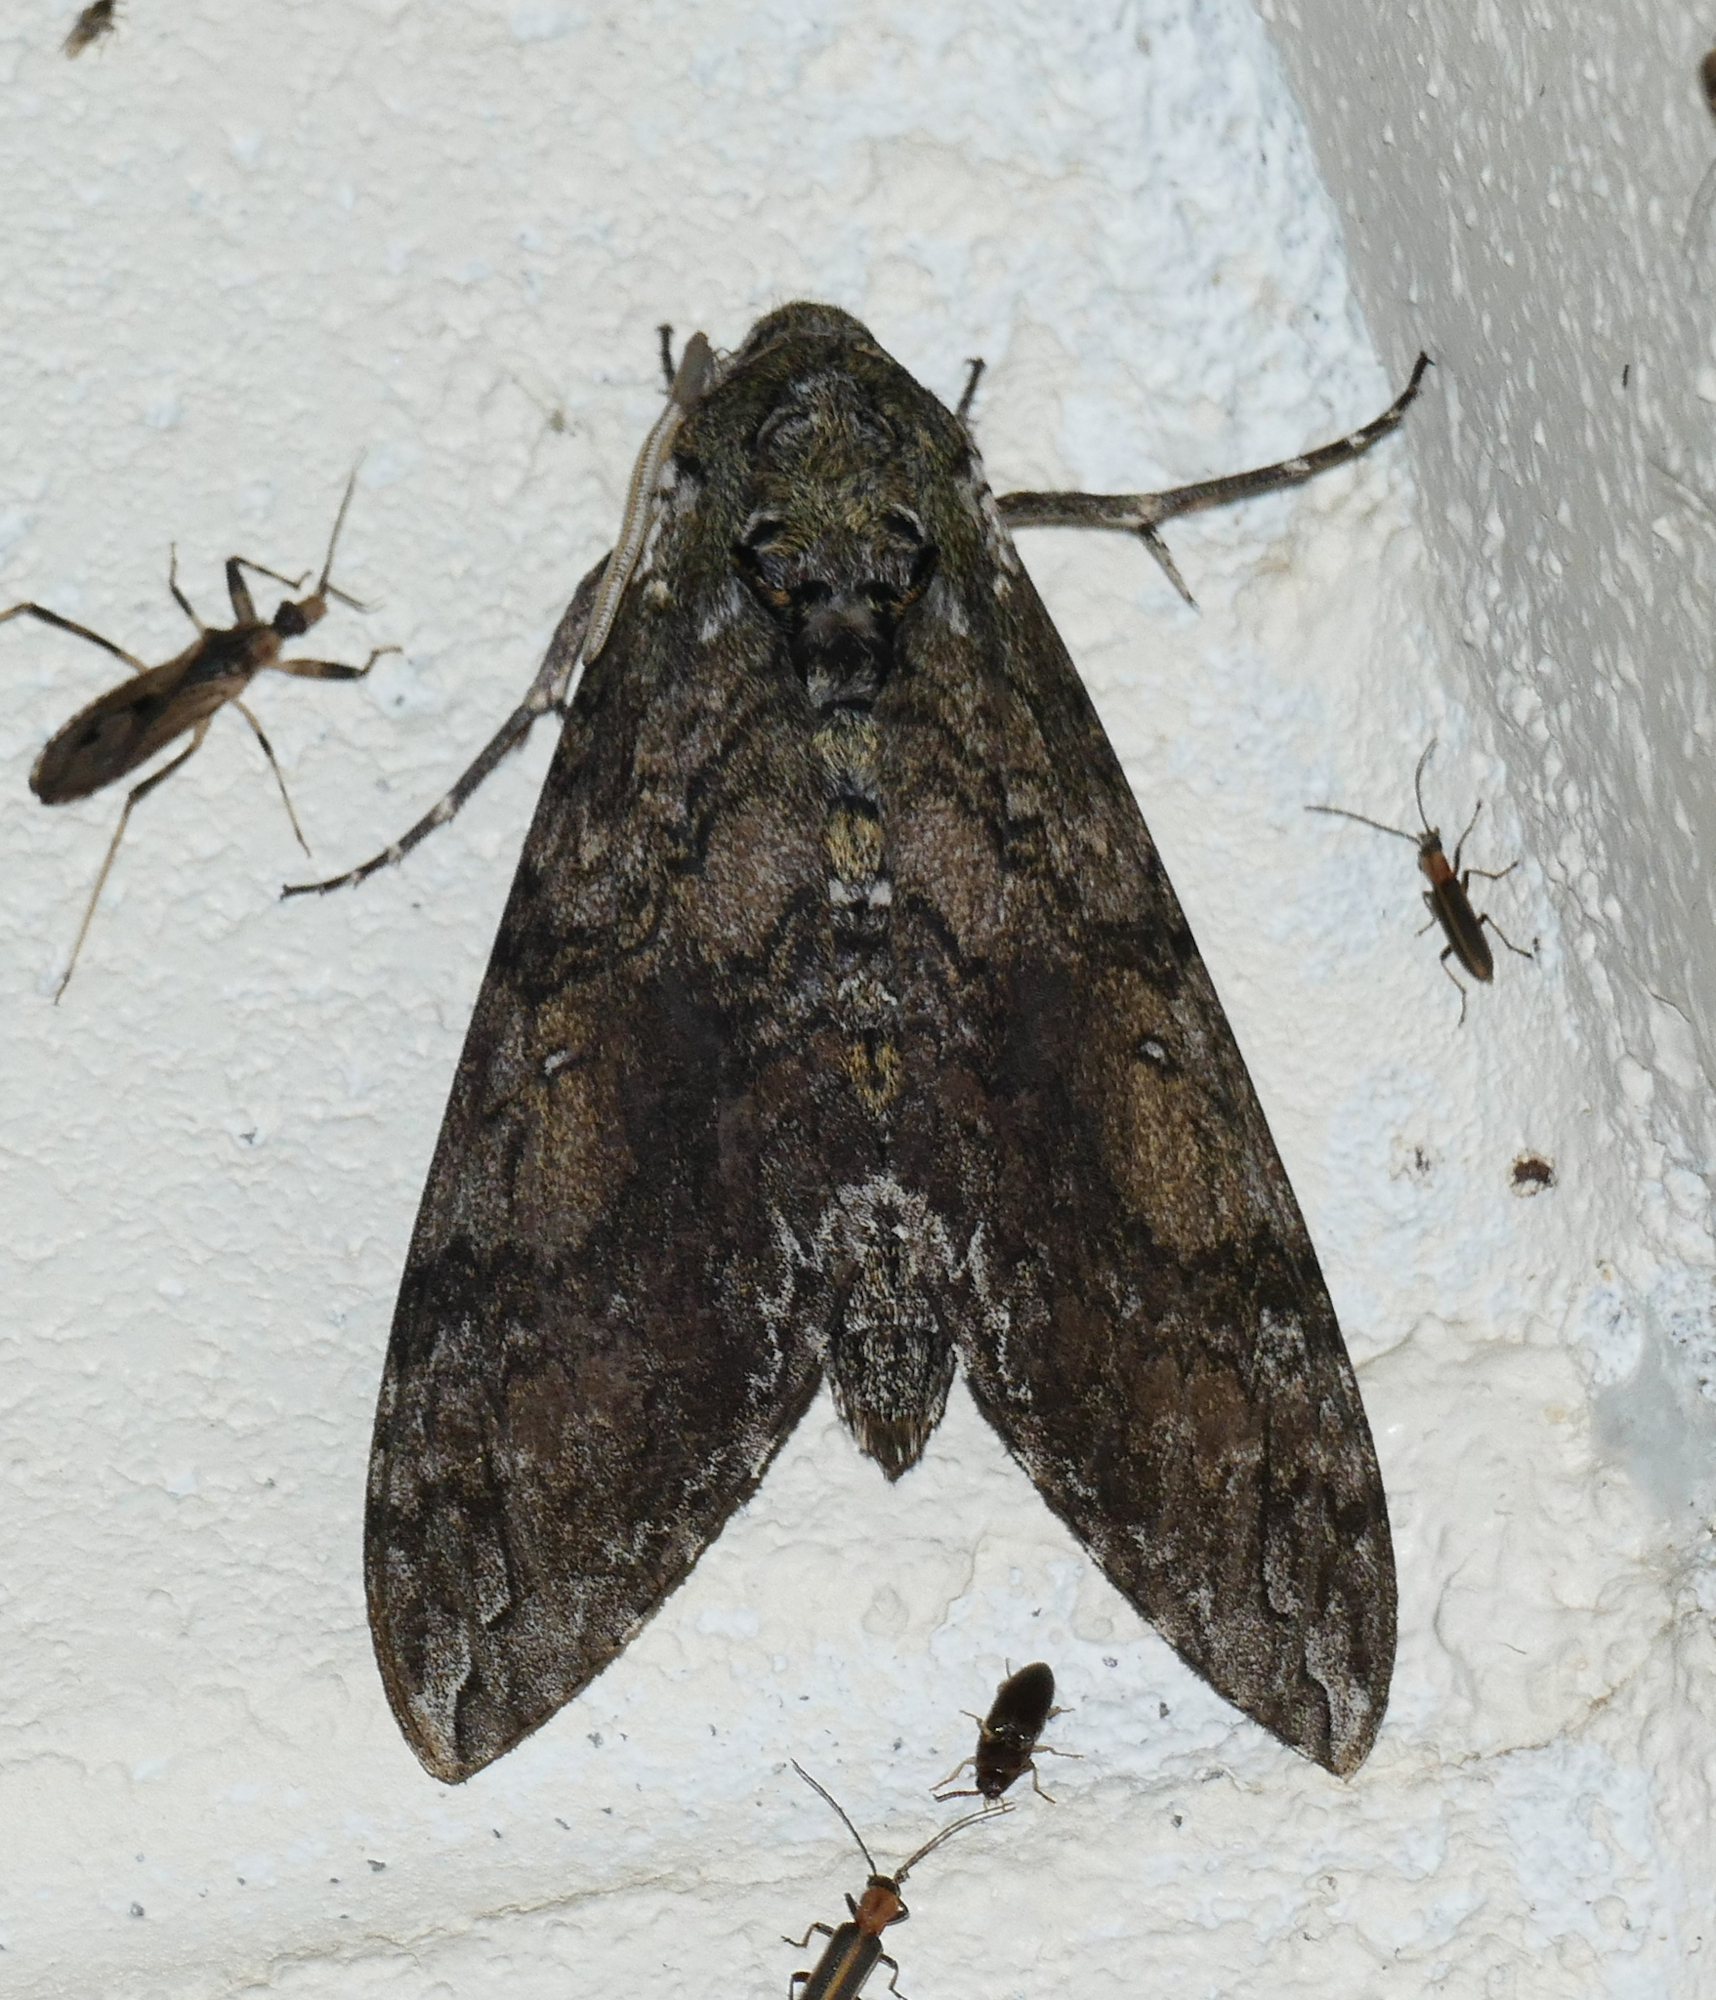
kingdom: Animalia
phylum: Arthropoda
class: Insecta
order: Lepidoptera
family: Sphingidae
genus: Manduca
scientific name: Manduca sexta
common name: Carolina sphinx
